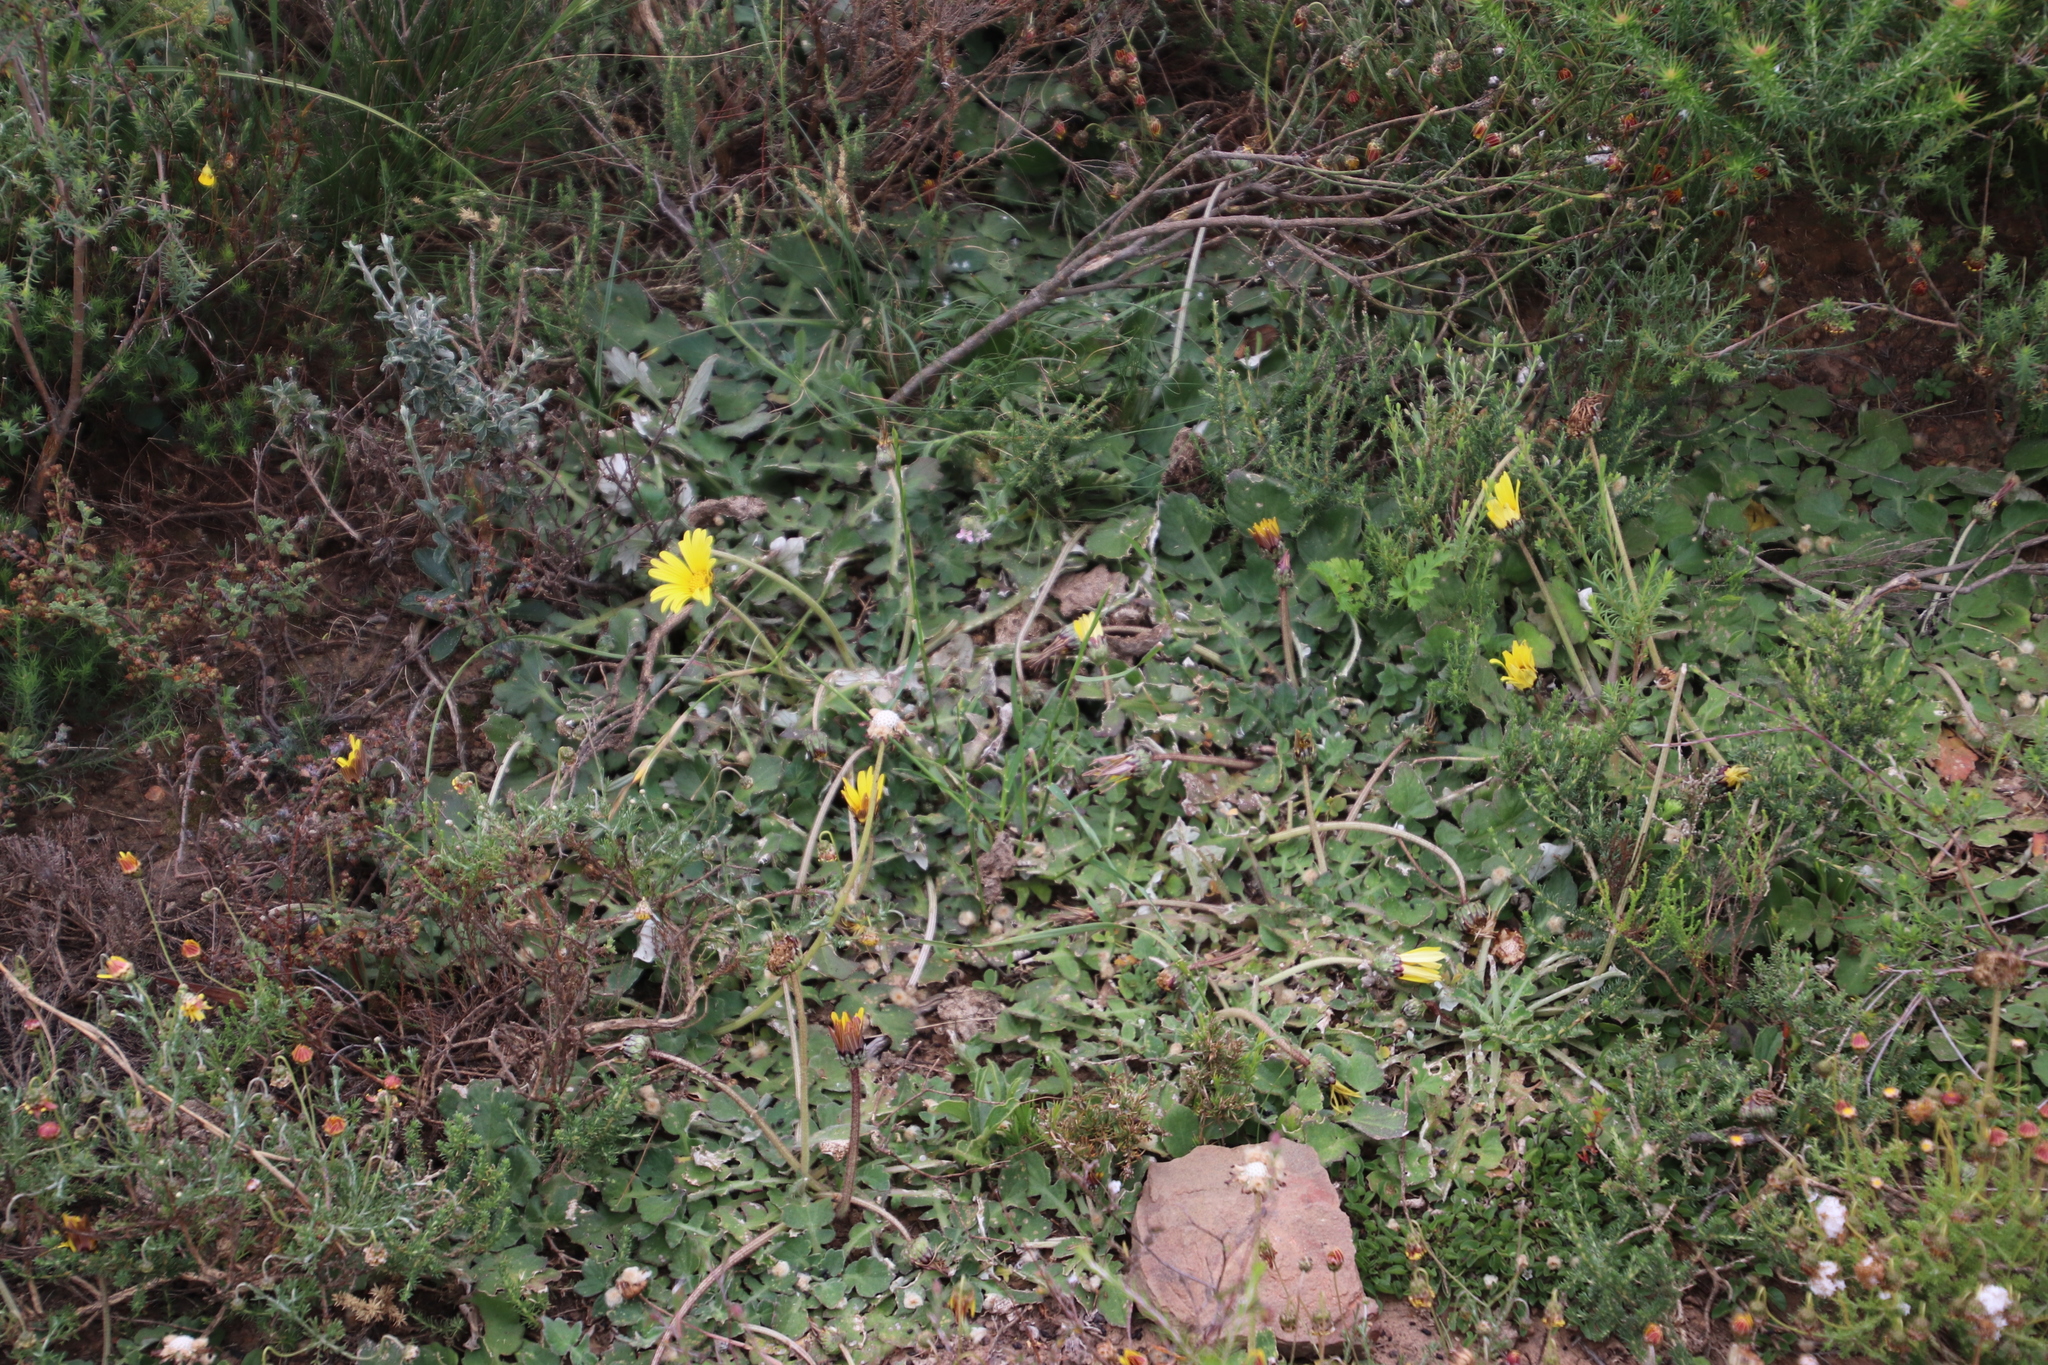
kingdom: Plantae
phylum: Tracheophyta
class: Magnoliopsida
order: Asterales
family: Asteraceae
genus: Arctotheca
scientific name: Arctotheca prostrata
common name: Capeweed
